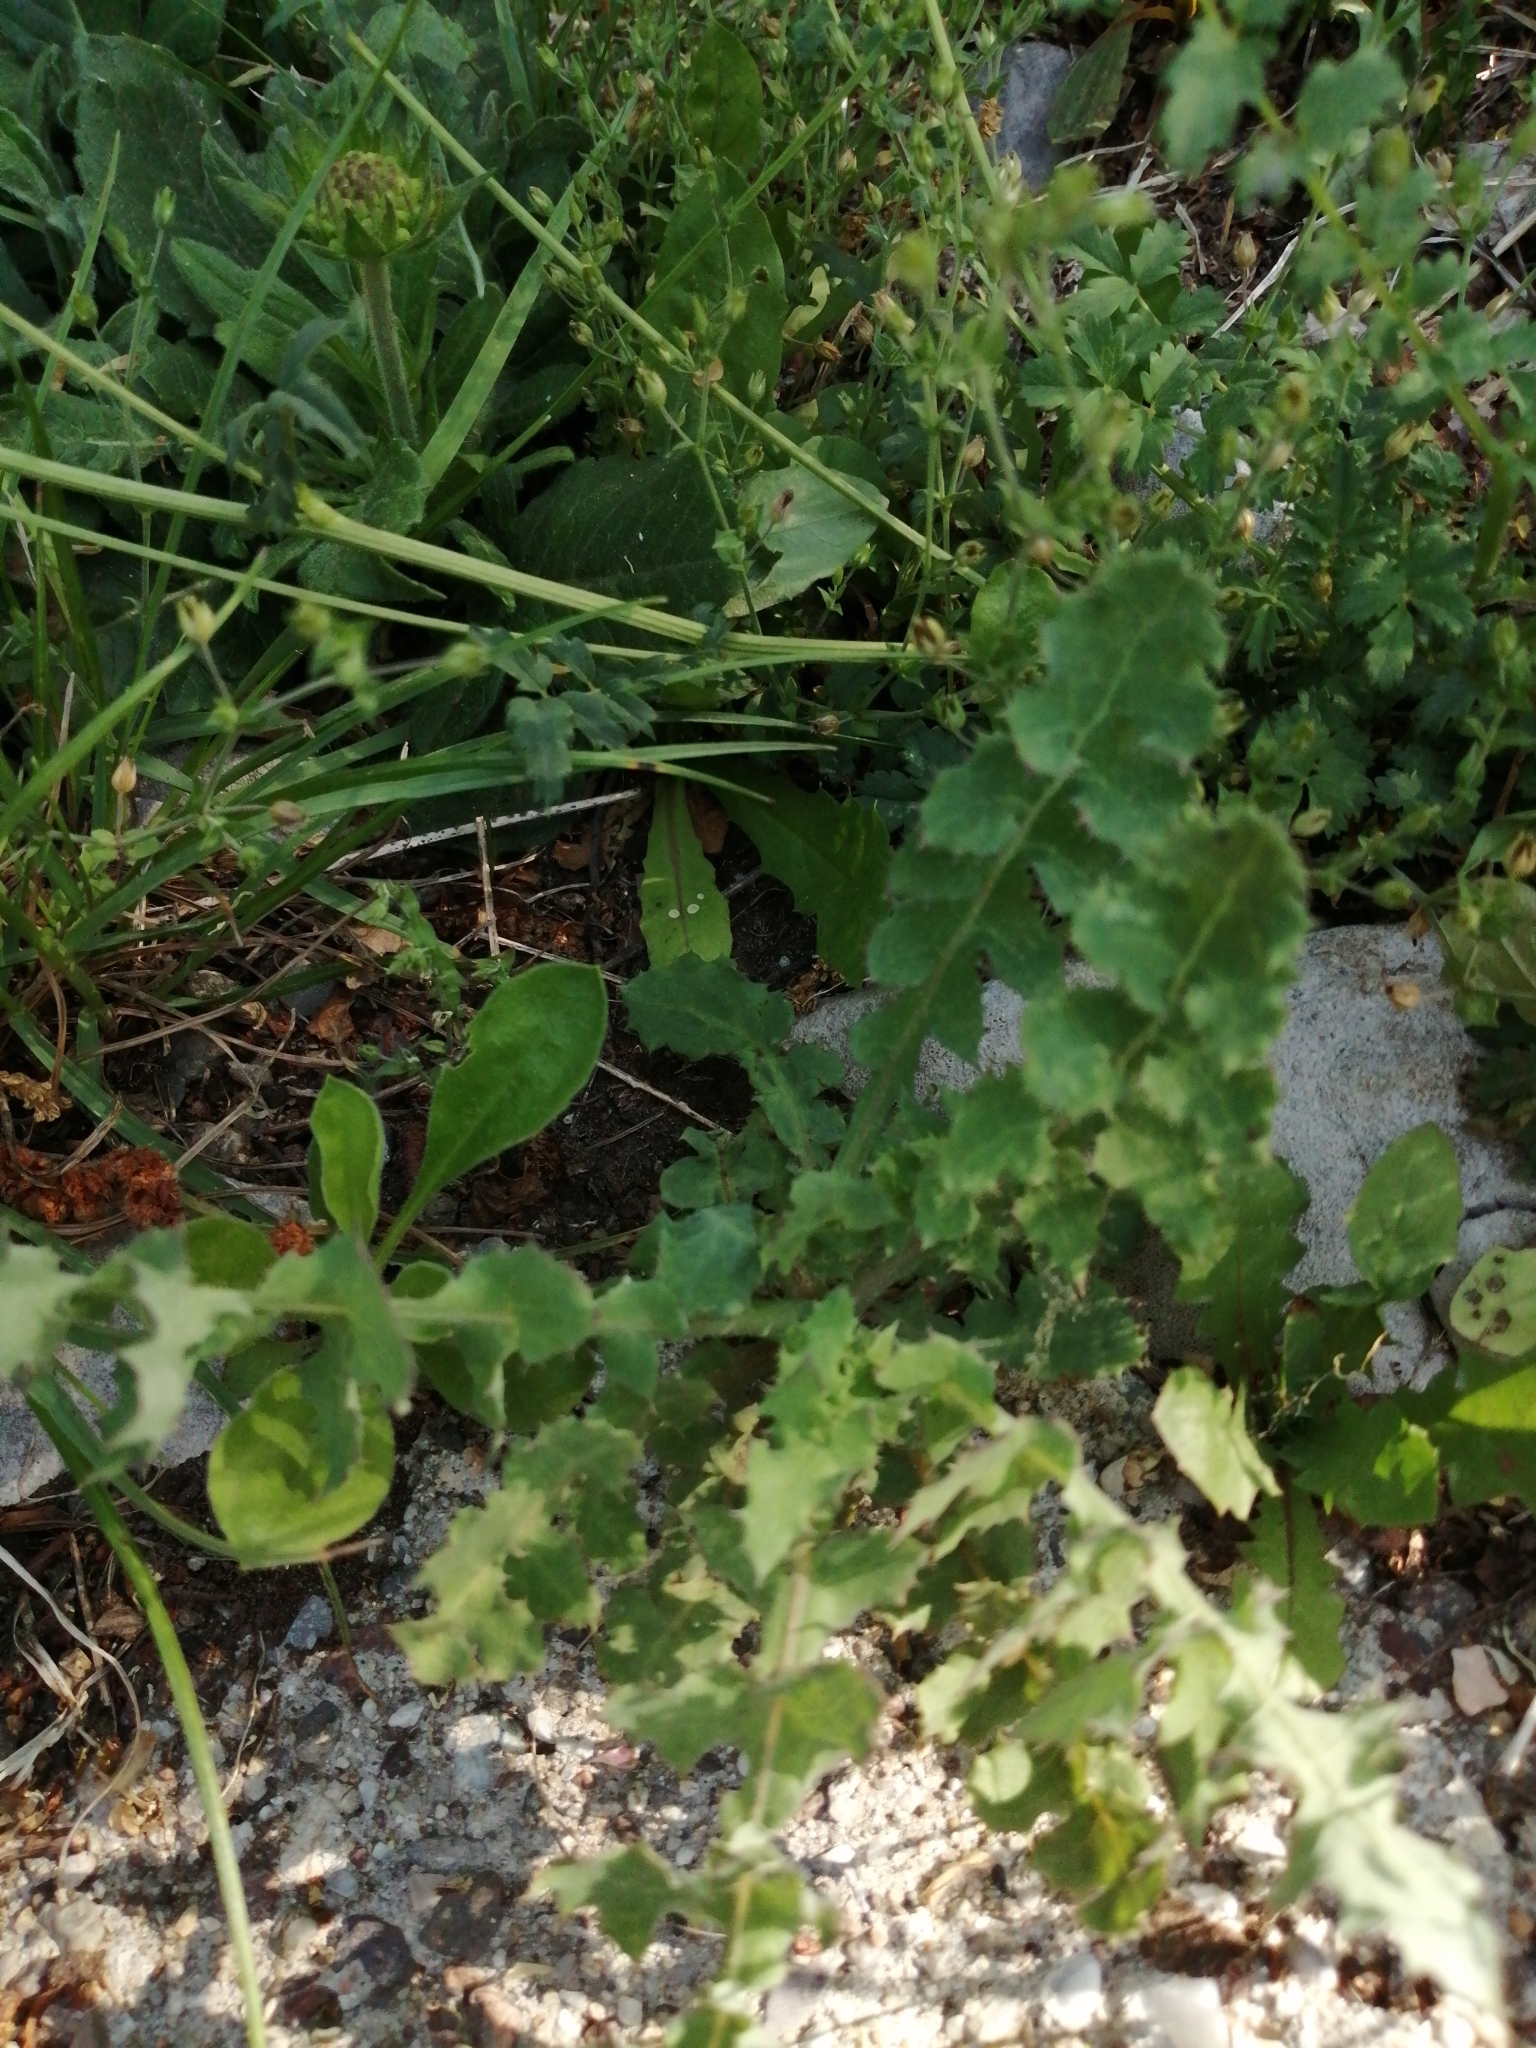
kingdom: Plantae
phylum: Tracheophyta
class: Magnoliopsida
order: Asterales
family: Asteraceae
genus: Sonchus
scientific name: Sonchus oleraceus
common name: Common sowthistle
